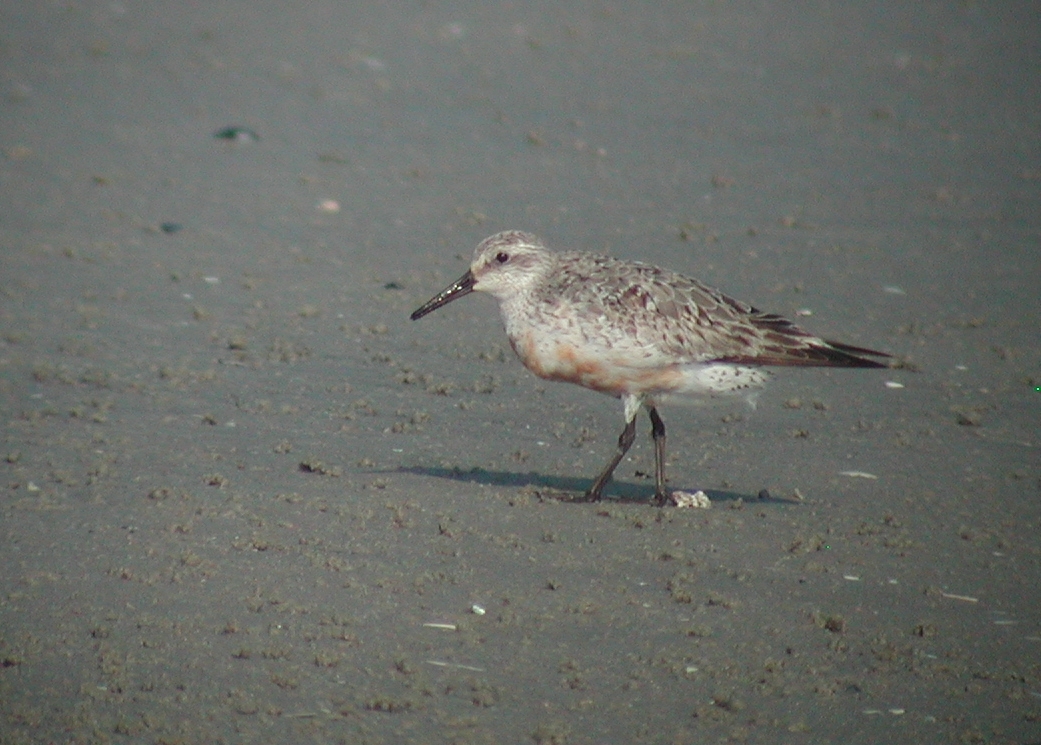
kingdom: Animalia
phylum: Chordata
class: Aves
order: Charadriiformes
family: Scolopacidae
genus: Calidris
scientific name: Calidris canutus
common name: Red knot
